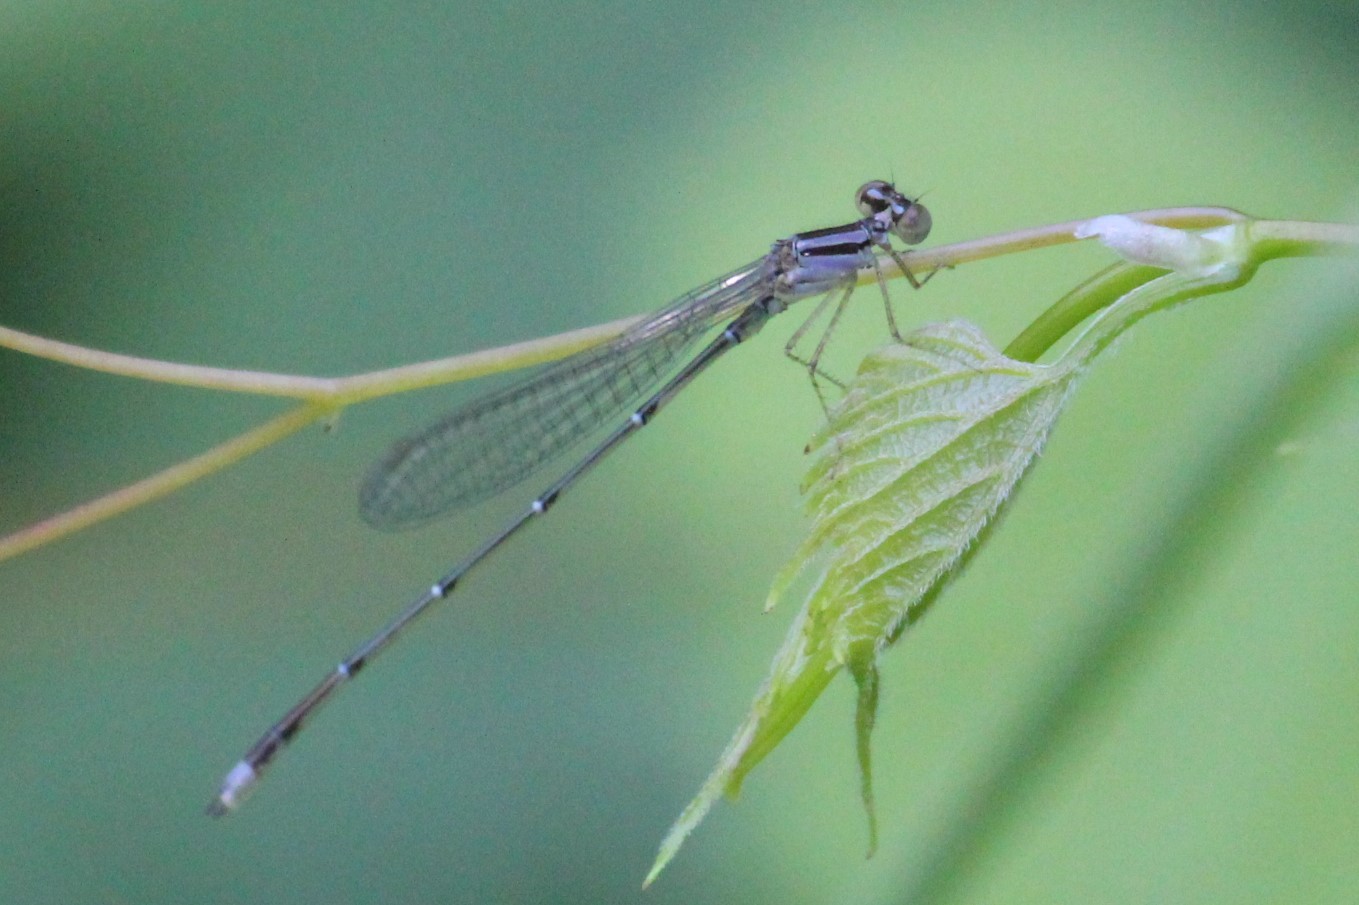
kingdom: Animalia
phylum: Arthropoda
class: Insecta
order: Odonata
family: Coenagrionidae
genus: Enallagma
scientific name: Enallagma signatum
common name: Orange bluet
